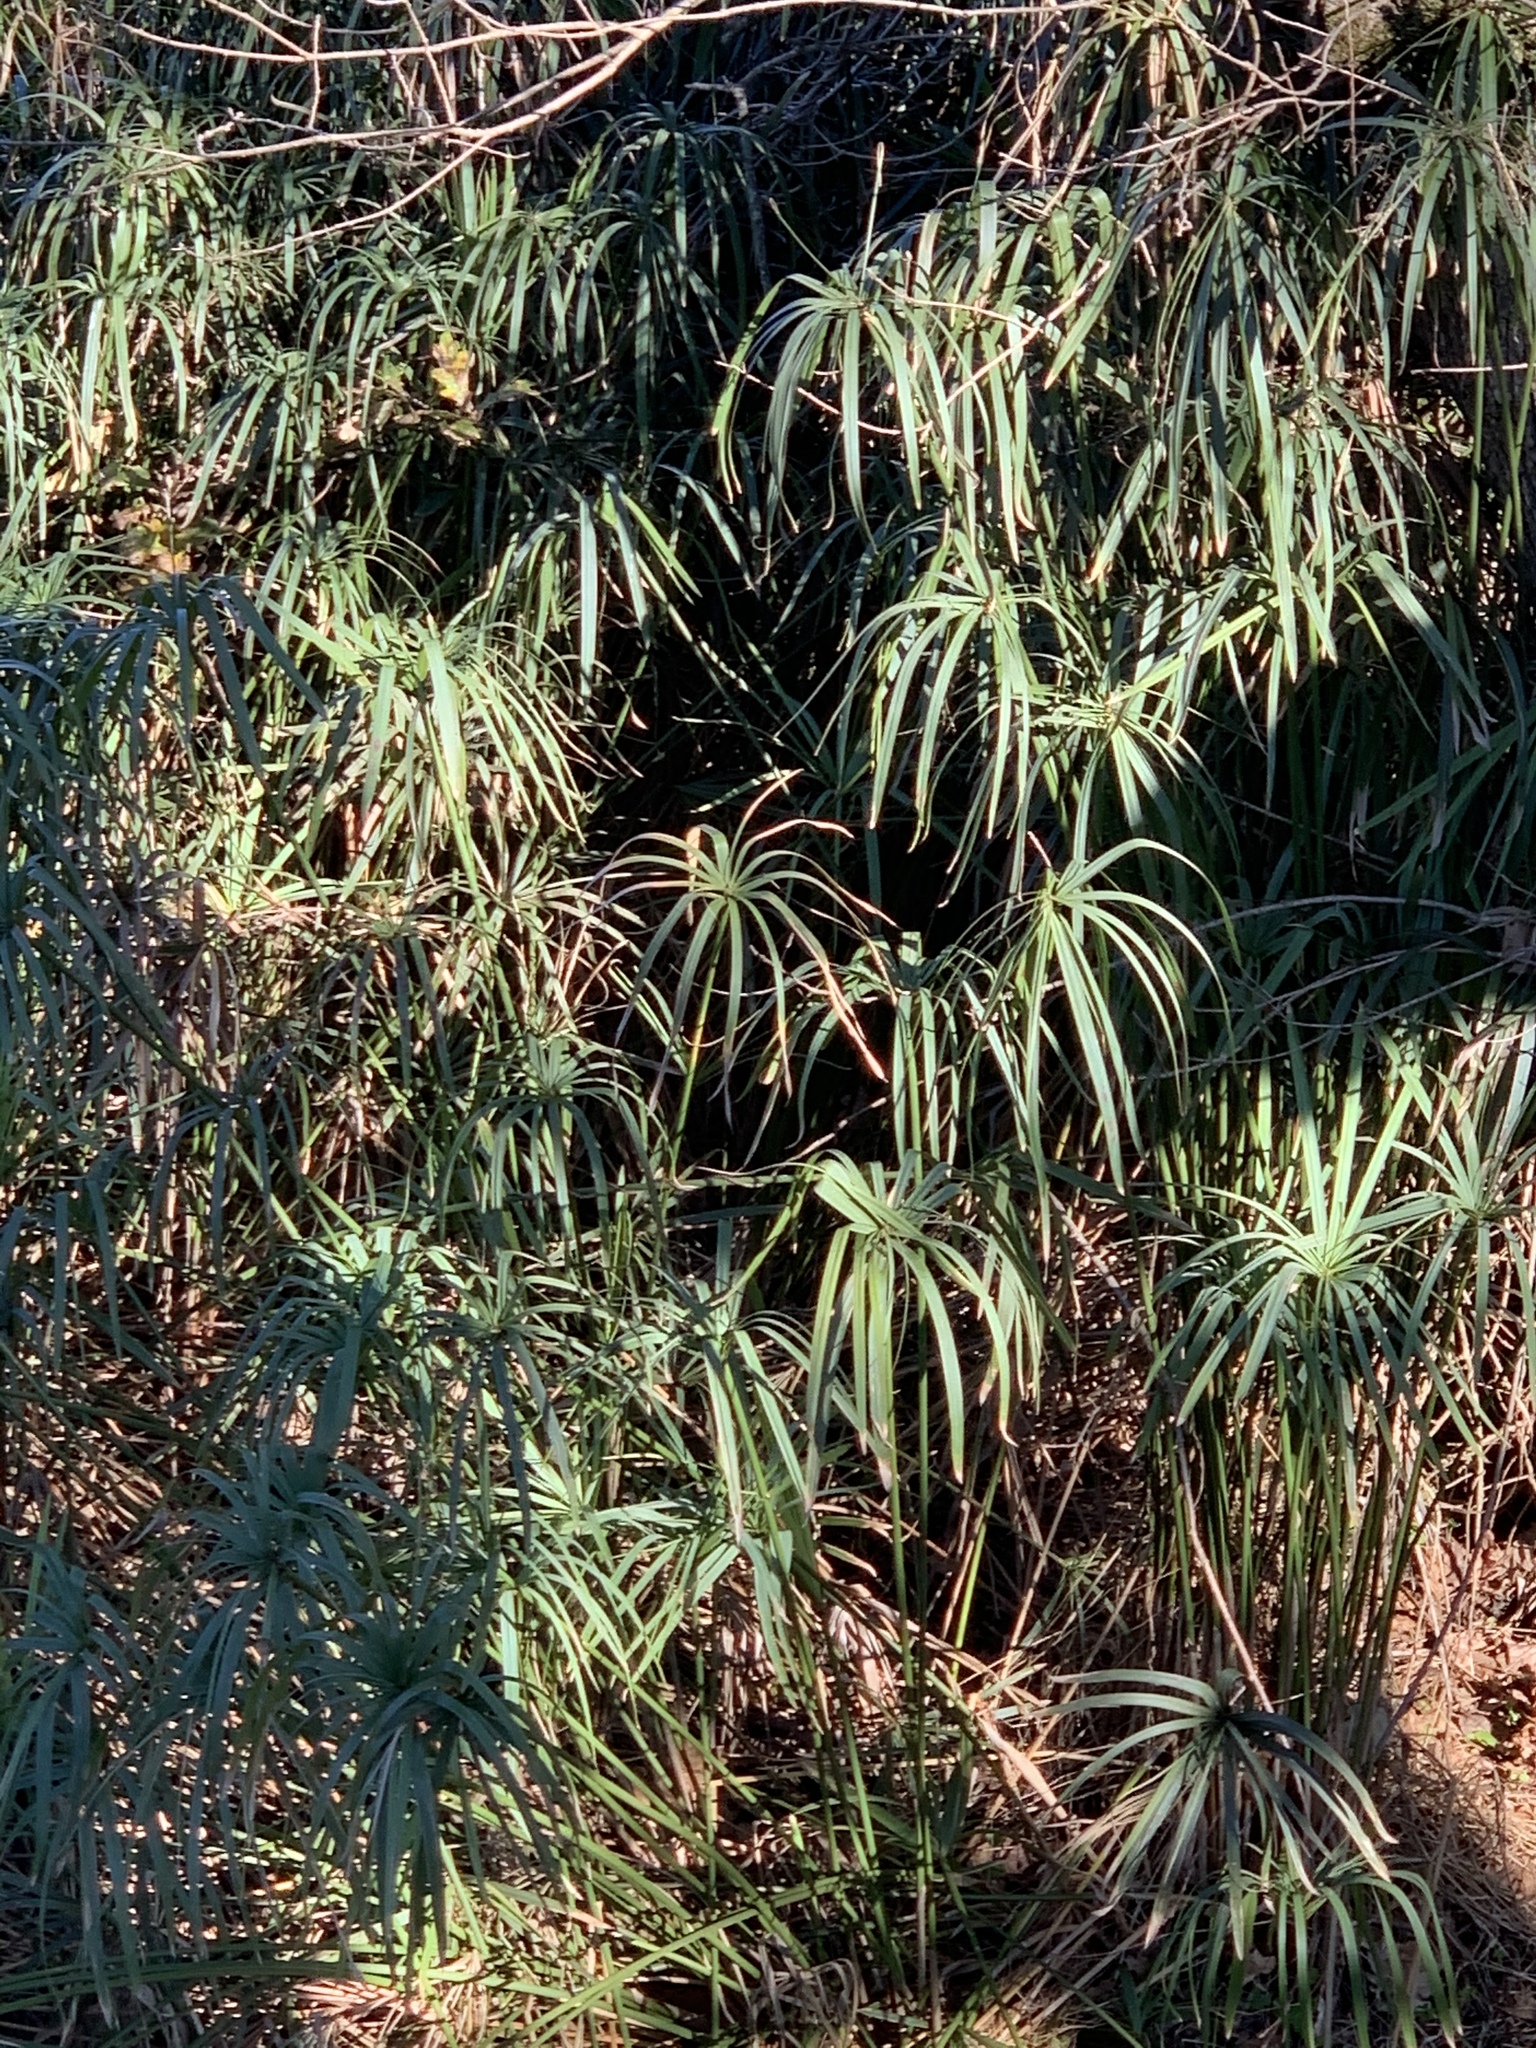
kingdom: Plantae
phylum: Tracheophyta
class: Liliopsida
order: Poales
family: Cyperaceae
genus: Cyperus
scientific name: Cyperus textilis
